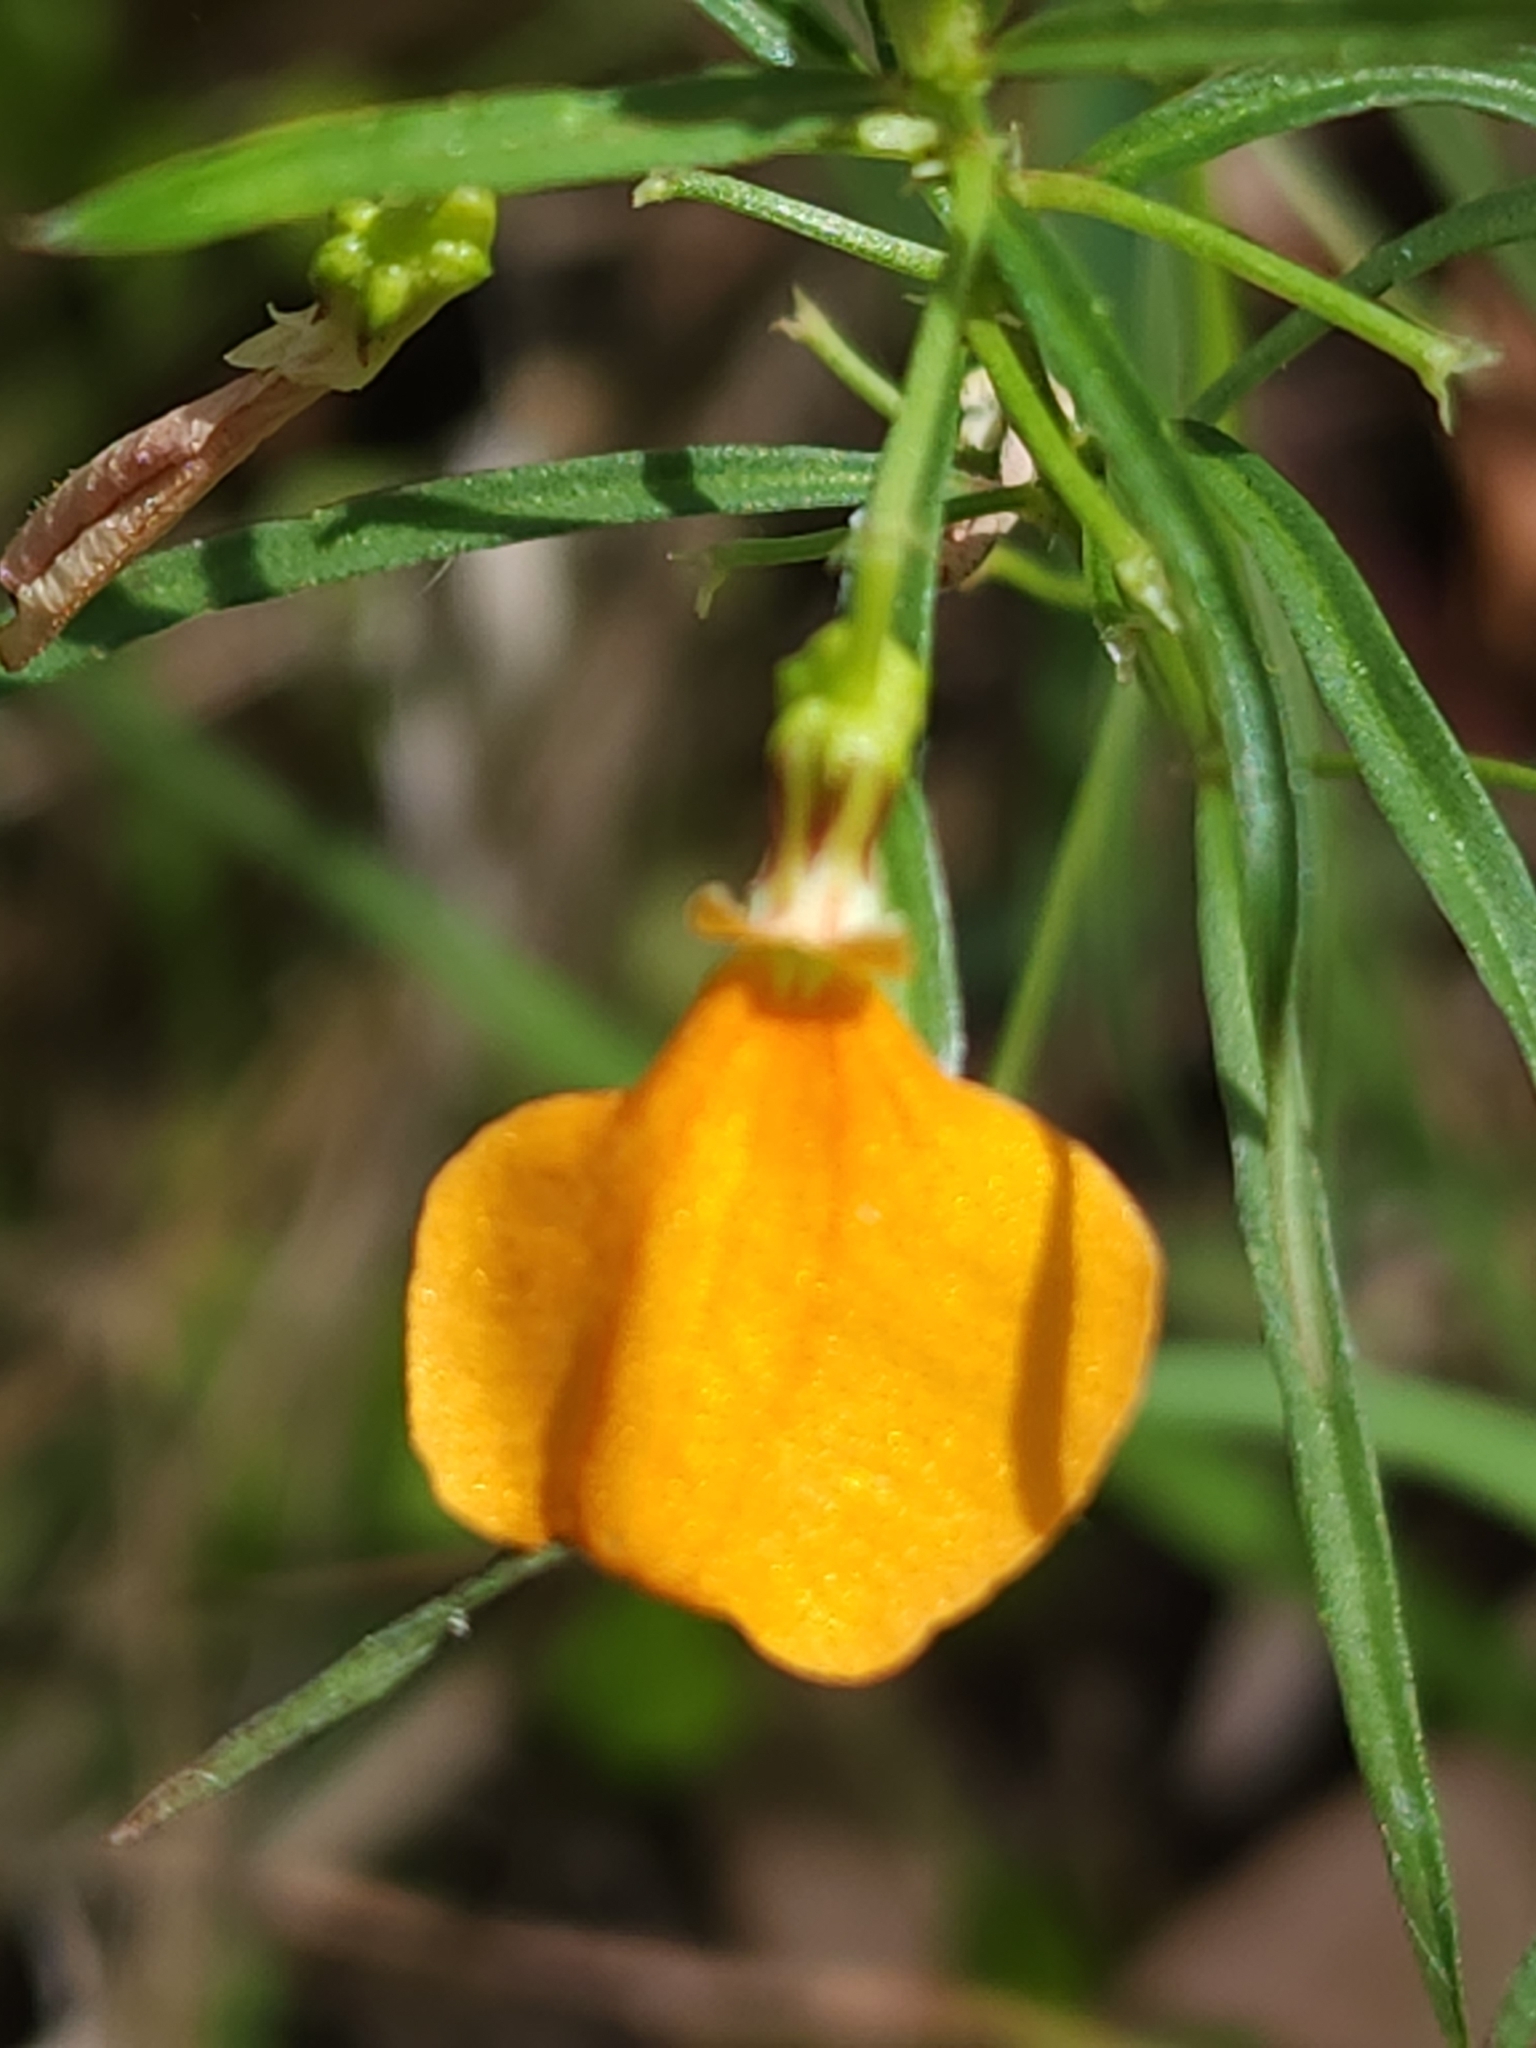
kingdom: Plantae
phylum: Tracheophyta
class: Magnoliopsida
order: Malpighiales
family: Violaceae
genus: Pigea
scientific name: Pigea stellarioides
